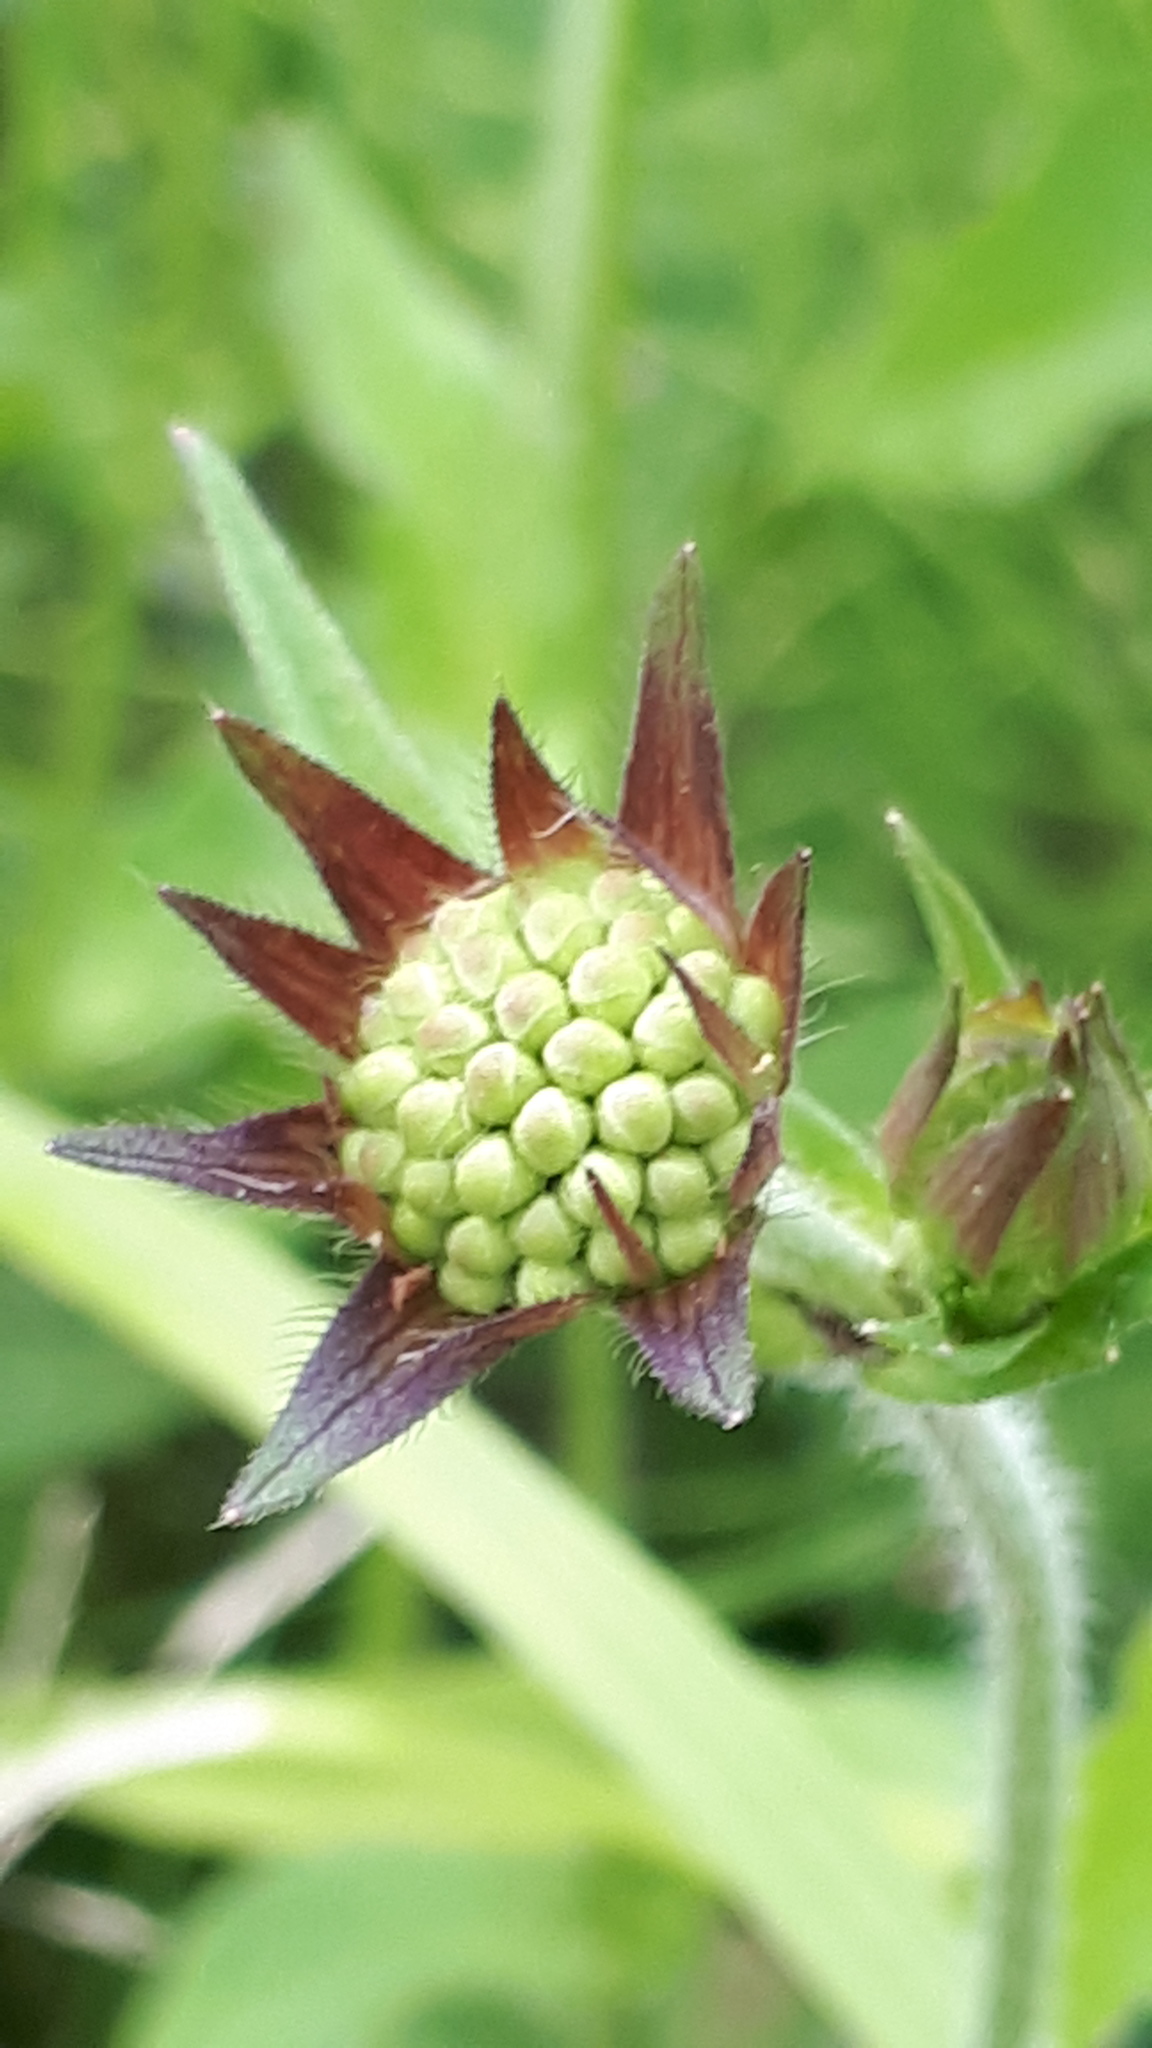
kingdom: Plantae
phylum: Tracheophyta
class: Magnoliopsida
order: Dipsacales
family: Caprifoliaceae
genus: Knautia
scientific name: Knautia dipsacifolia
